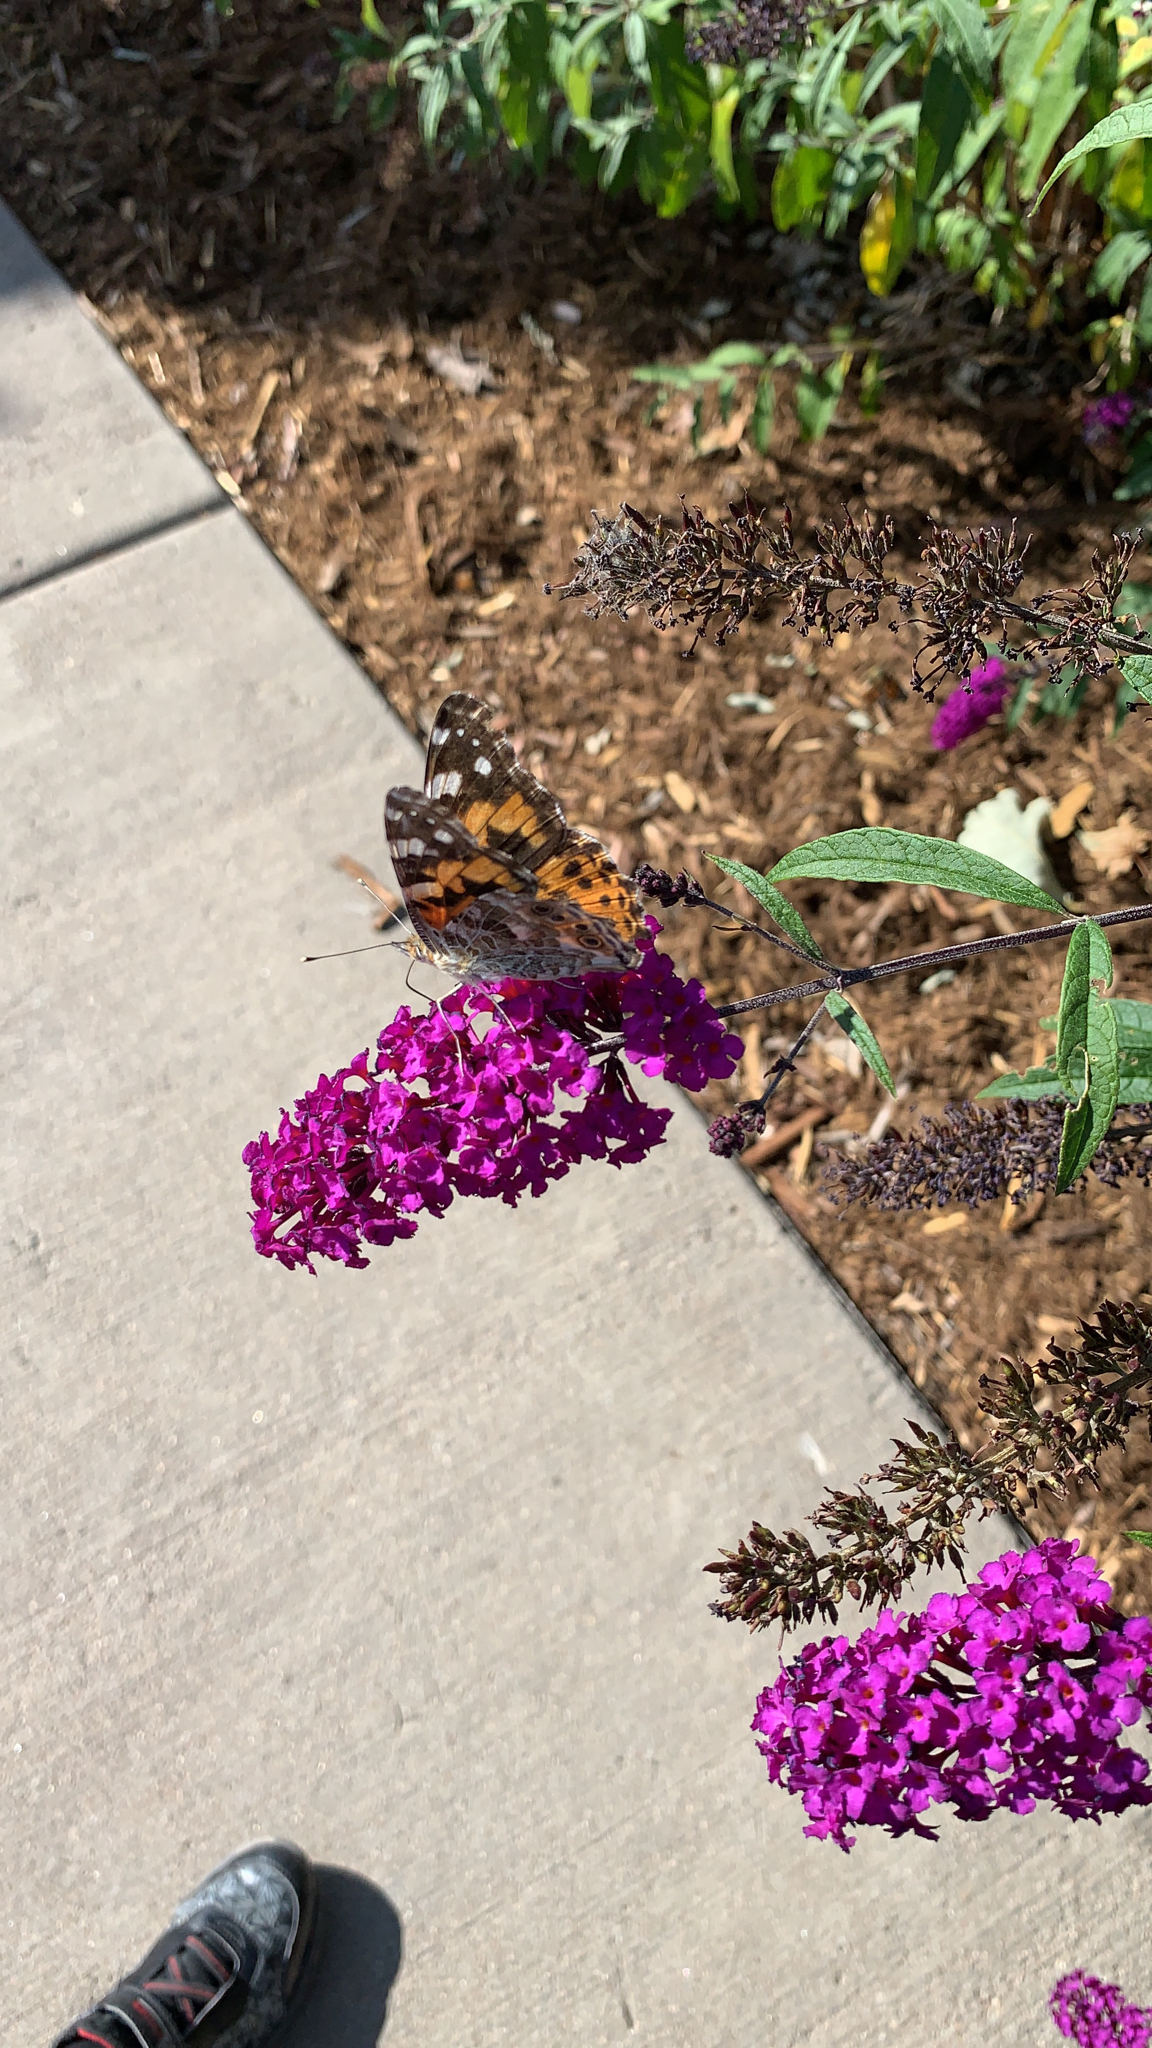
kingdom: Animalia
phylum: Arthropoda
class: Insecta
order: Lepidoptera
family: Nymphalidae
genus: Vanessa
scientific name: Vanessa cardui
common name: Painted lady
